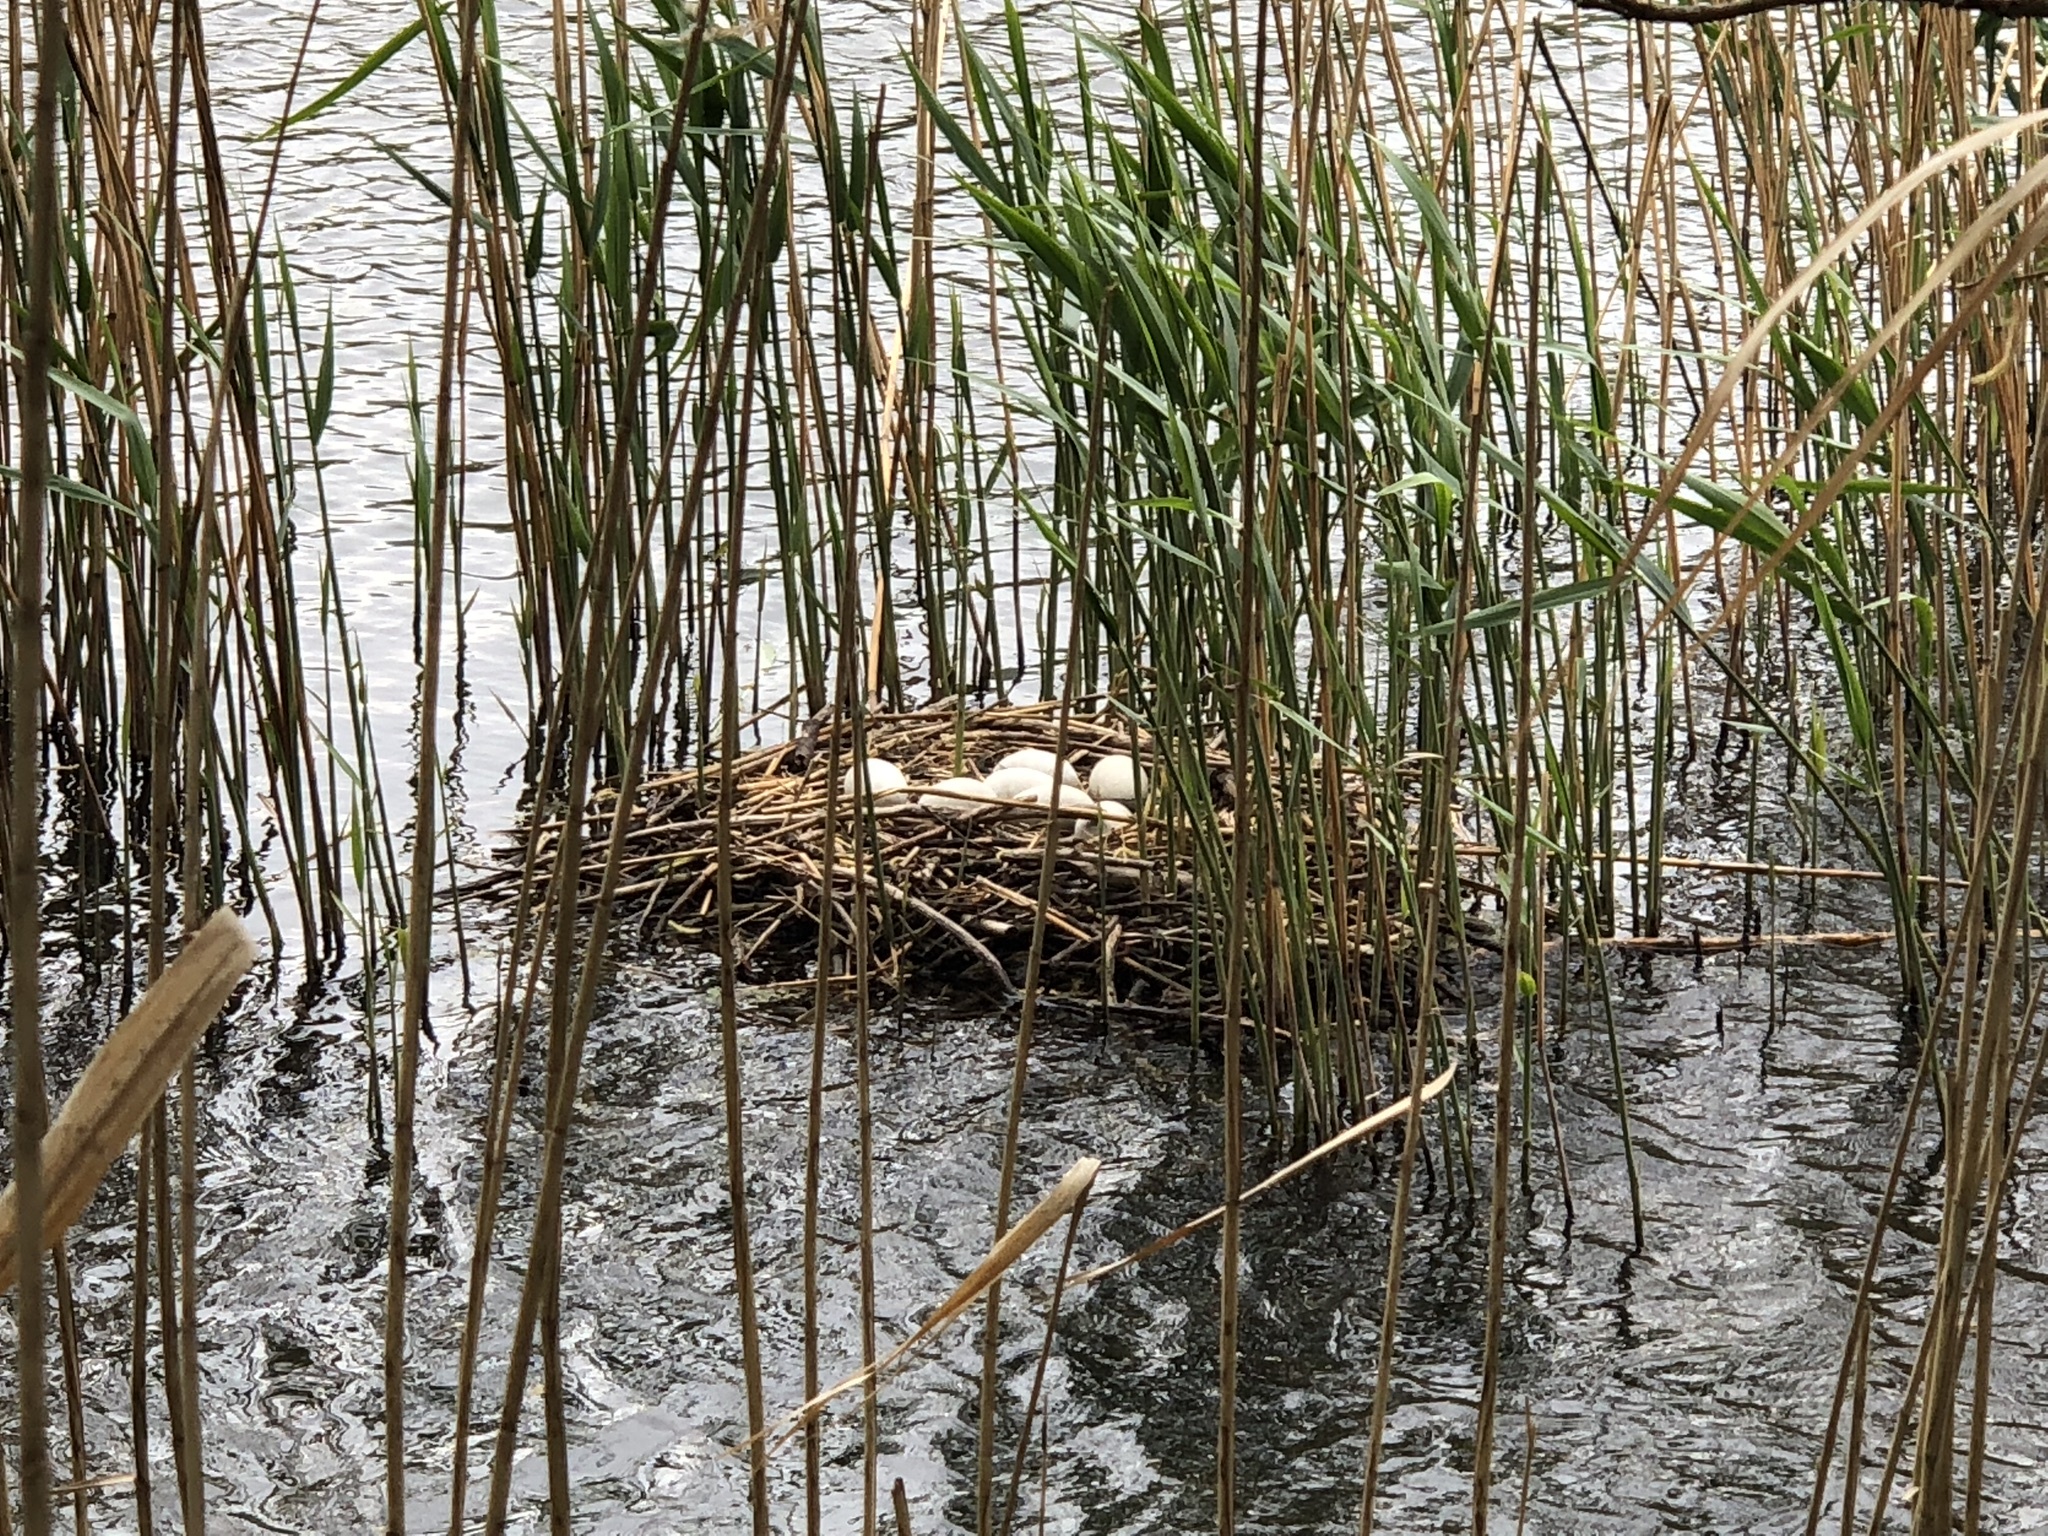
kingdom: Animalia
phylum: Chordata
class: Aves
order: Anseriformes
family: Anatidae
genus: Cygnus
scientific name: Cygnus olor
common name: Mute swan
